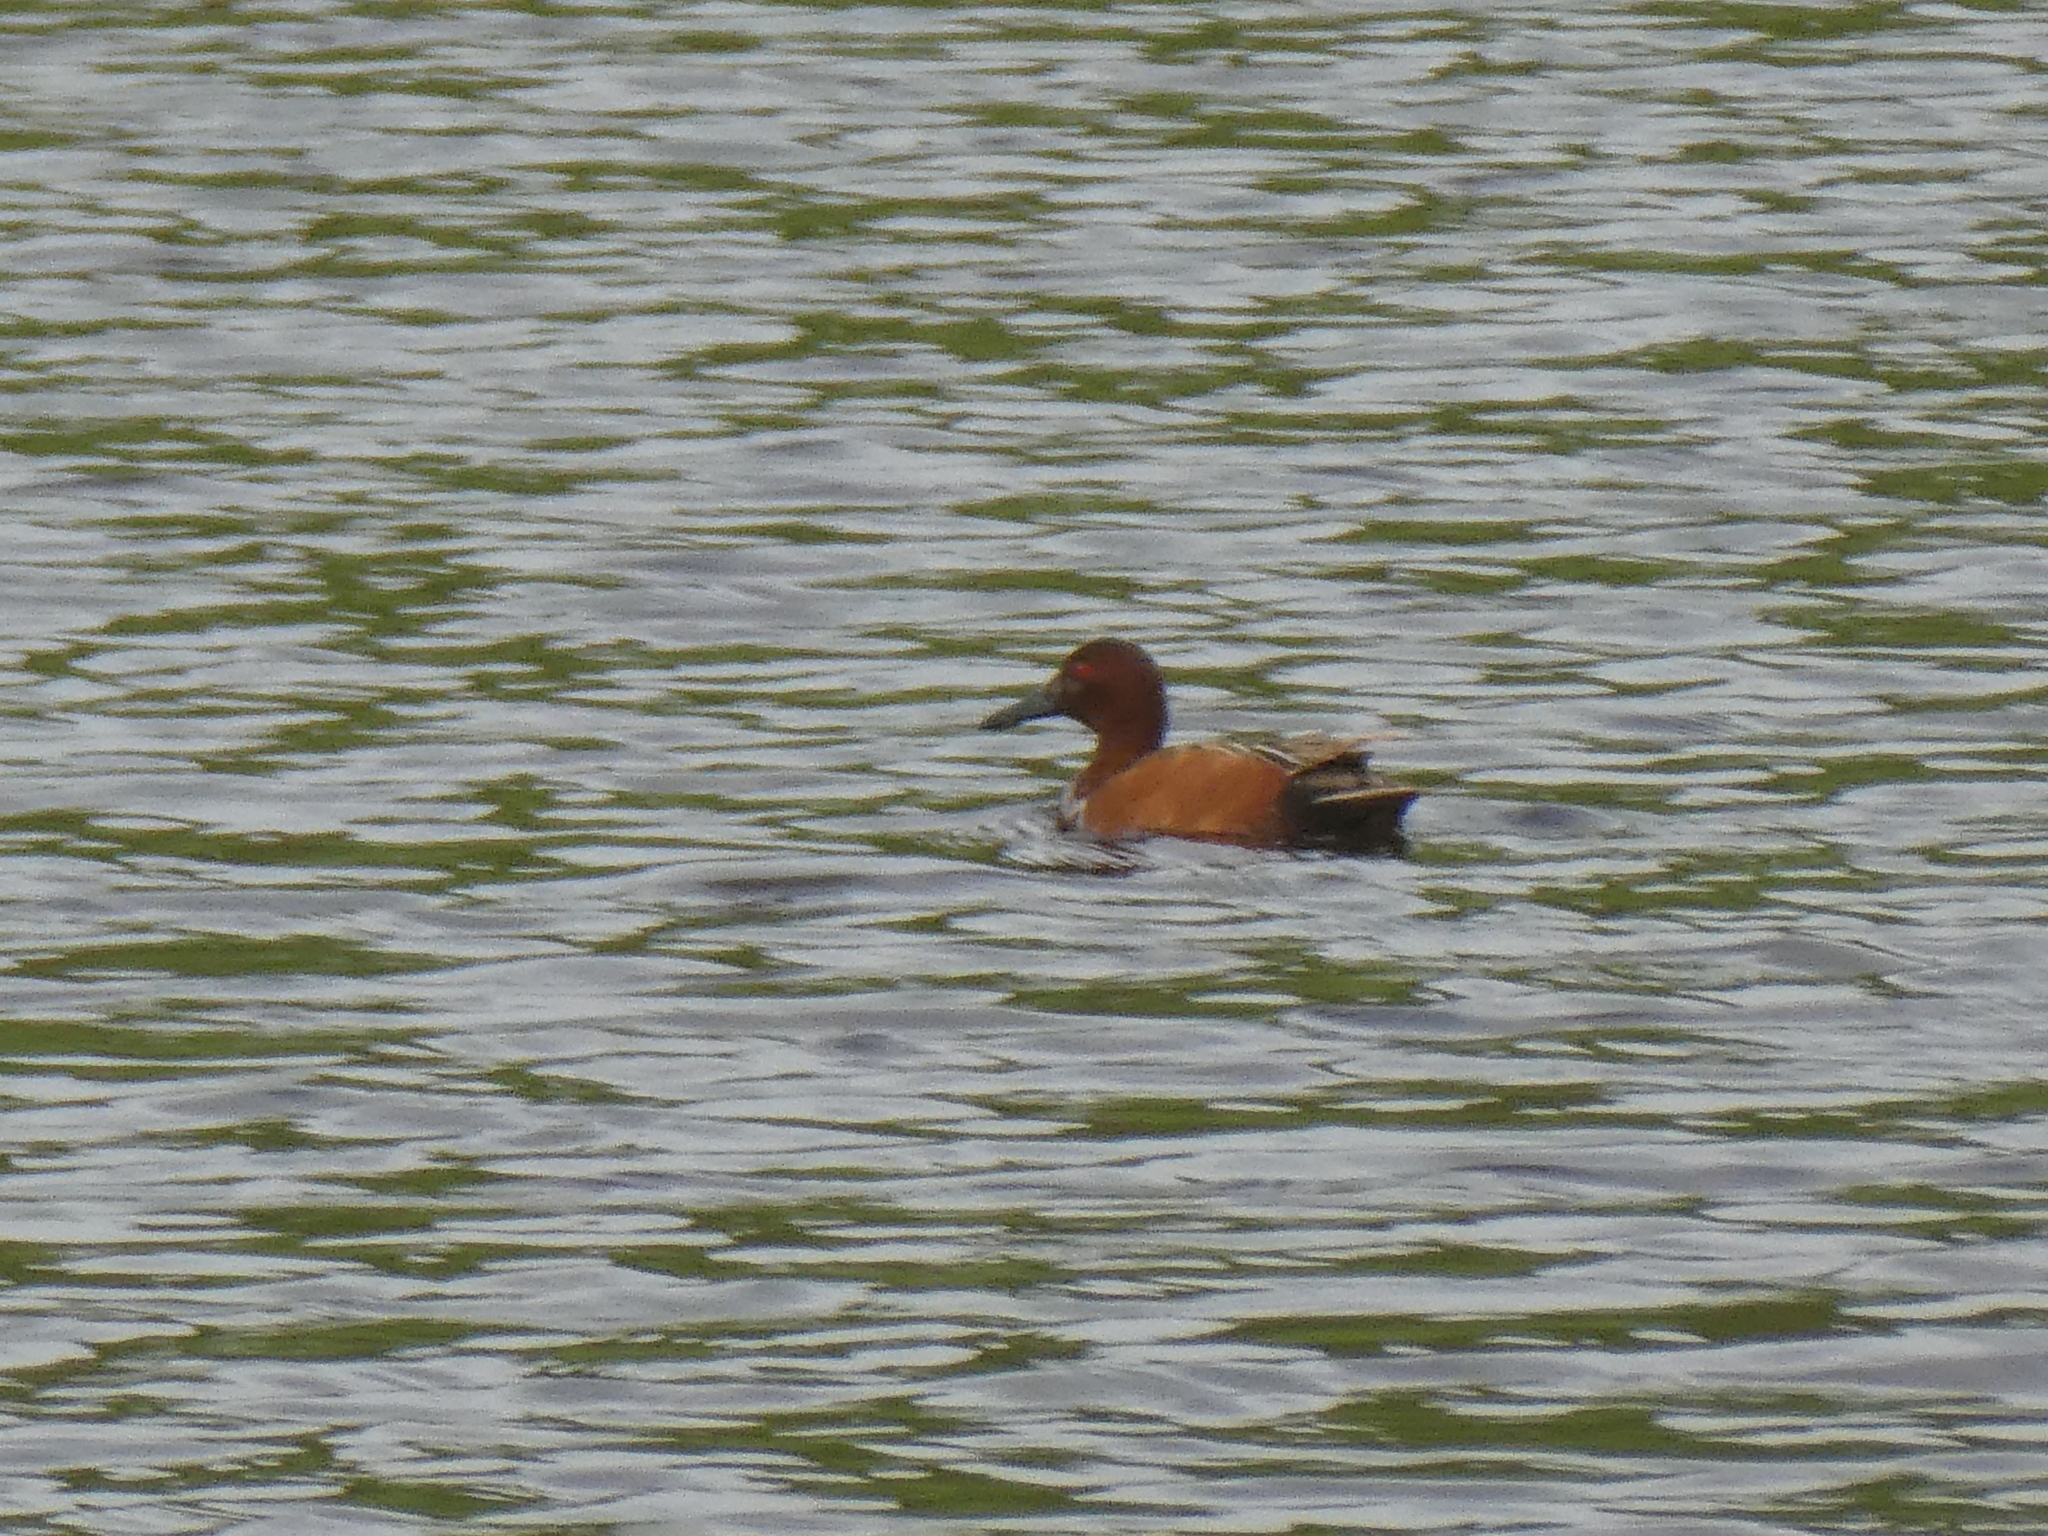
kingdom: Animalia
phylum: Chordata
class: Aves
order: Anseriformes
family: Anatidae
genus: Spatula
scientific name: Spatula cyanoptera
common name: Cinnamon teal
